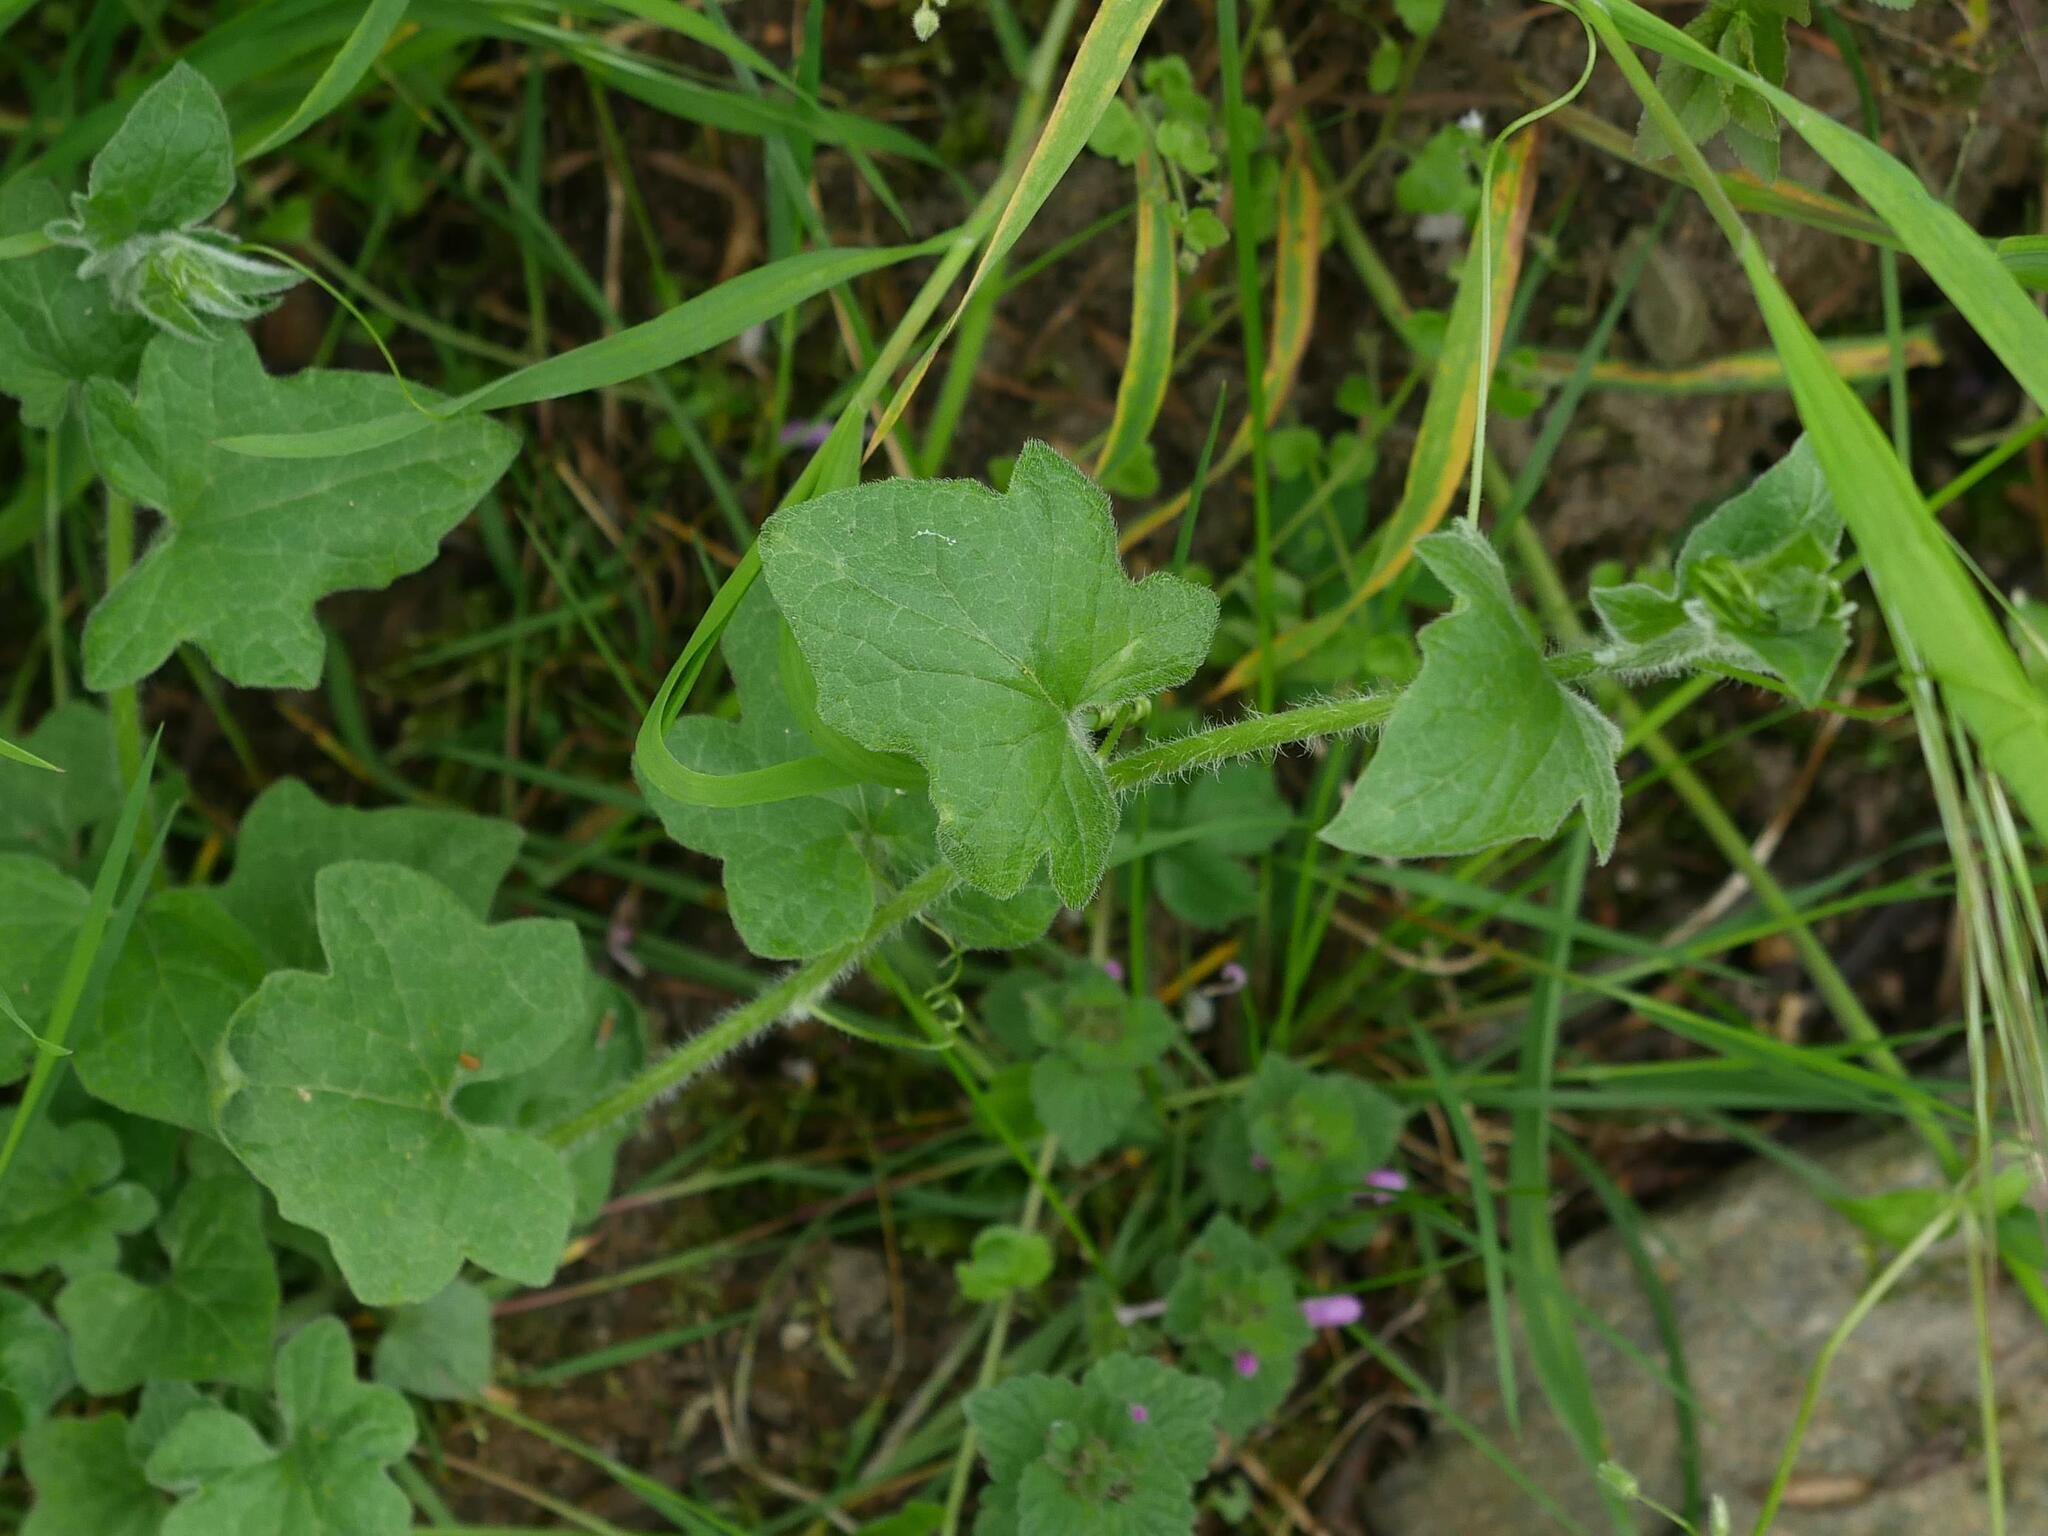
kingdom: Plantae
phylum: Tracheophyta
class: Magnoliopsida
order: Cucurbitales
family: Cucurbitaceae
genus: Bryonia
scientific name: Bryonia cretica
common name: Cretan bryony
